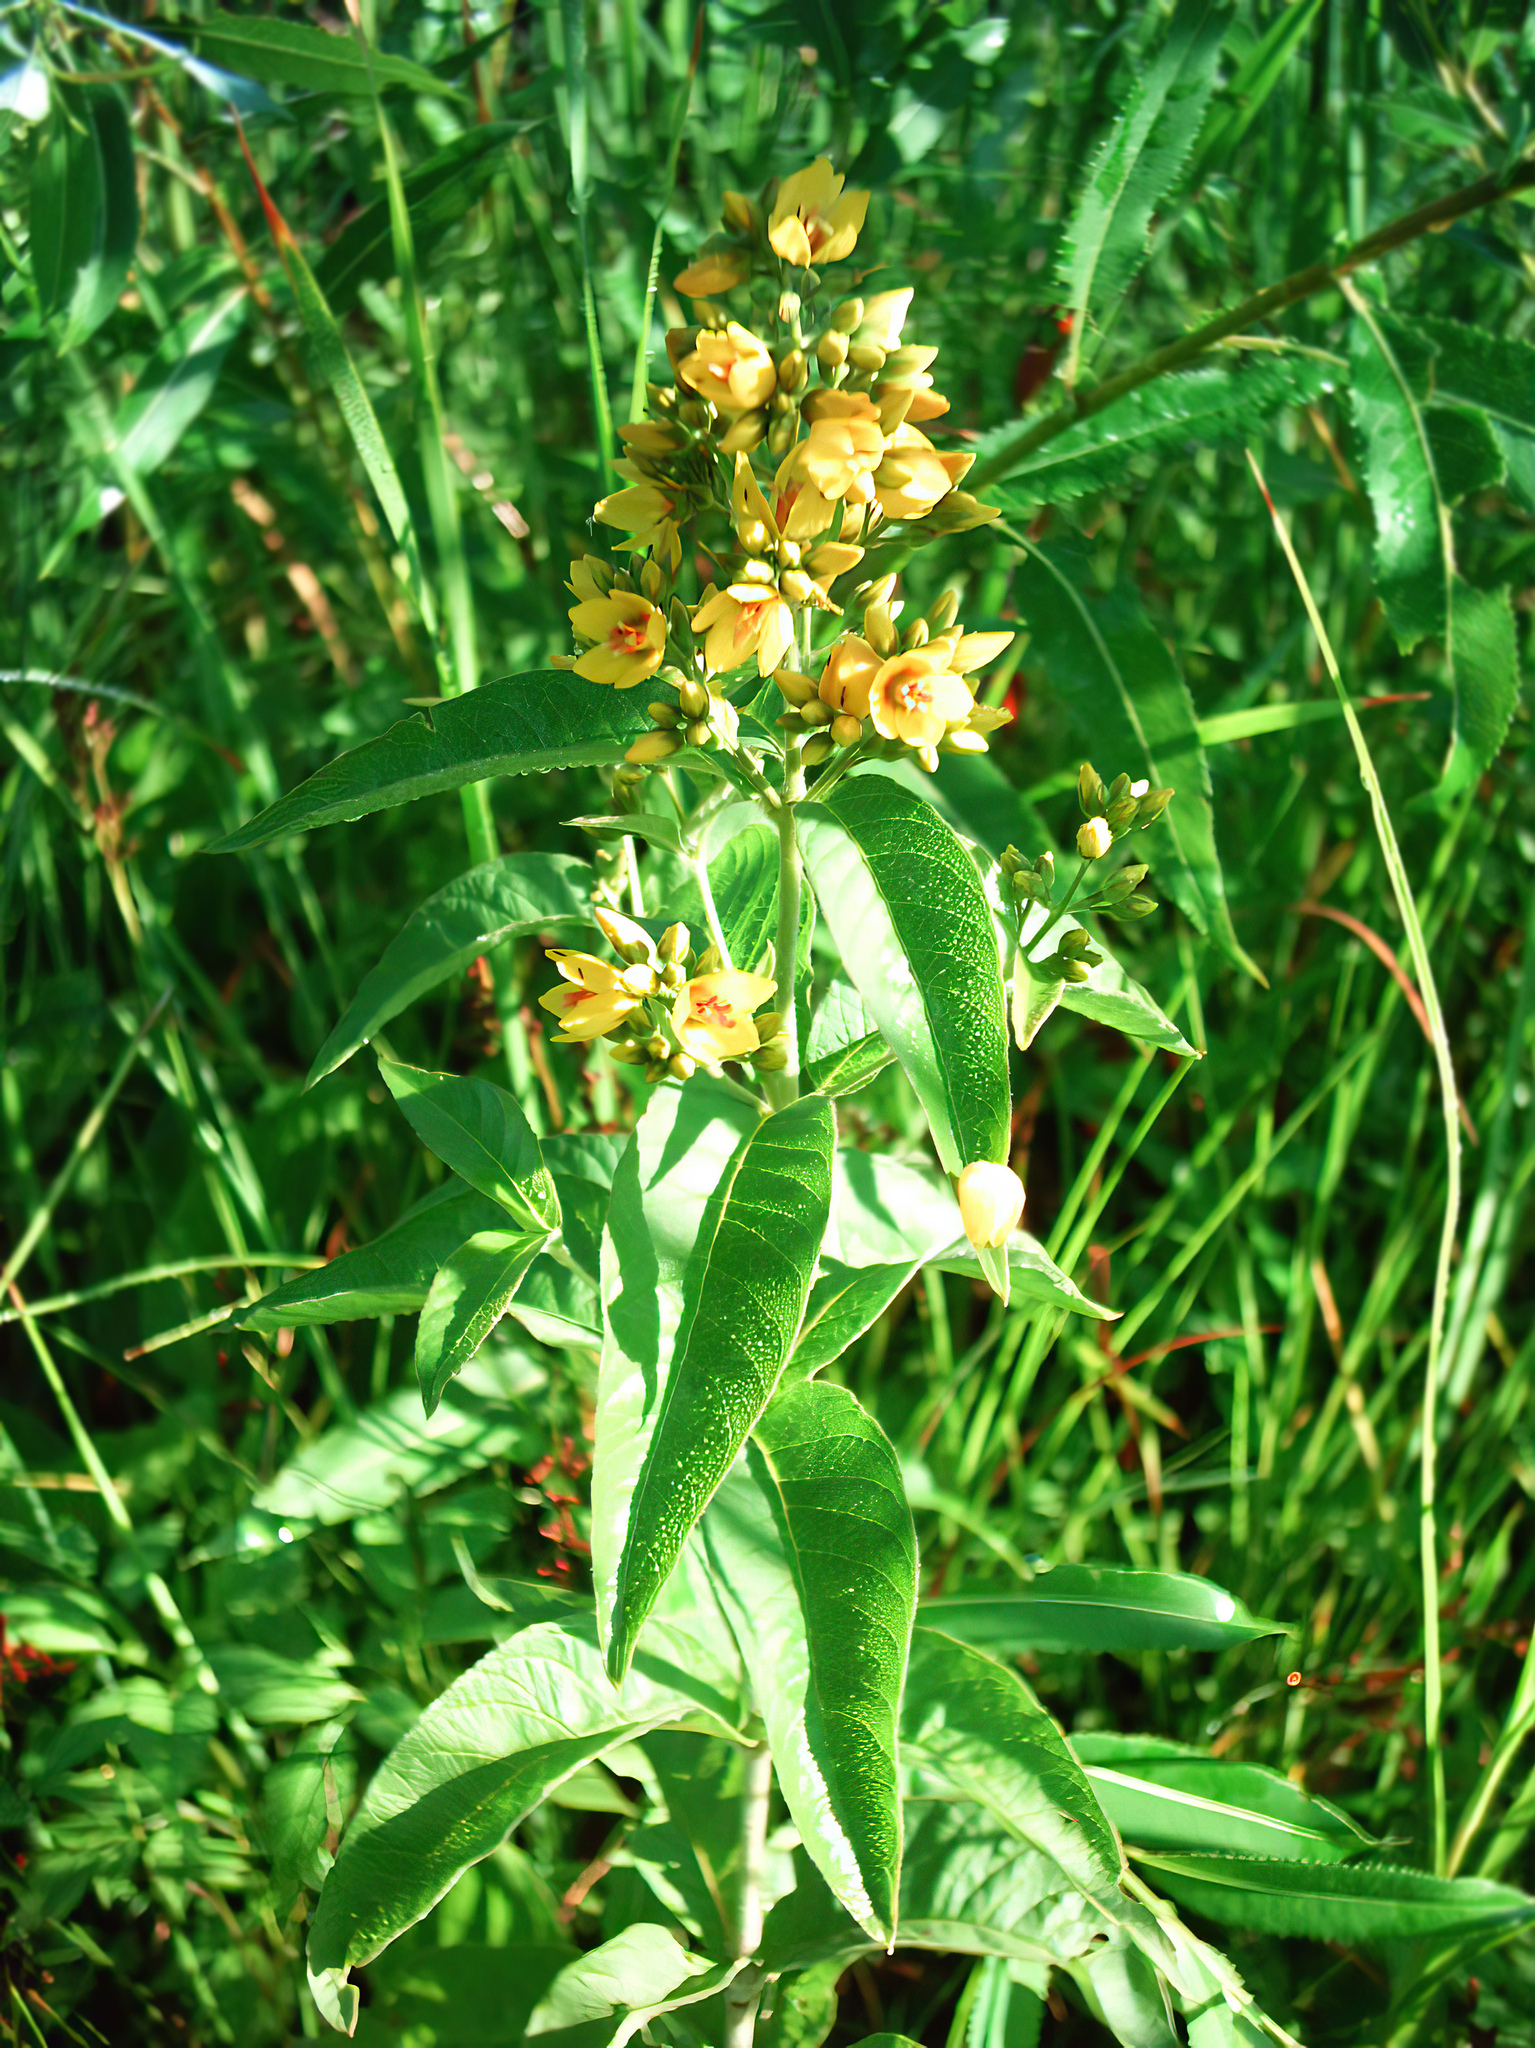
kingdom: Plantae
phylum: Tracheophyta
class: Magnoliopsida
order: Ericales
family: Primulaceae
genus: Lysimachia
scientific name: Lysimachia vulgaris
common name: Yellow loosestrife
